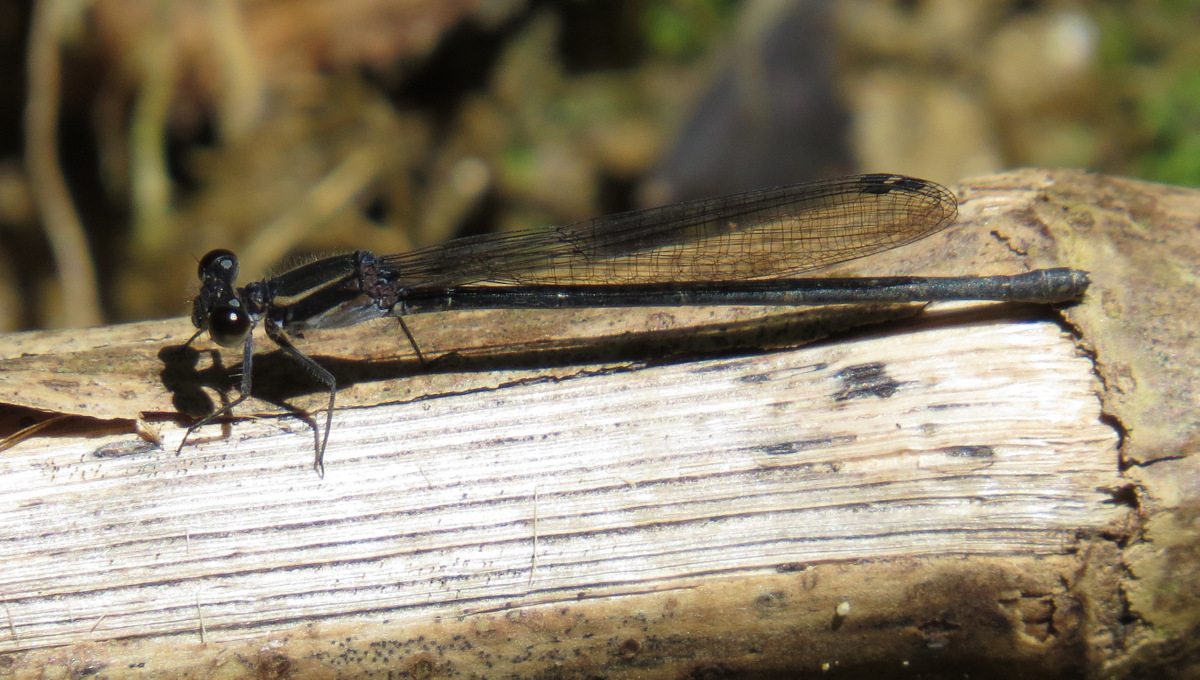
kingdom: Animalia
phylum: Arthropoda
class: Insecta
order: Odonata
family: Coenagrionidae
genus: Argia
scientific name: Argia translata
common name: Dusky dancer
